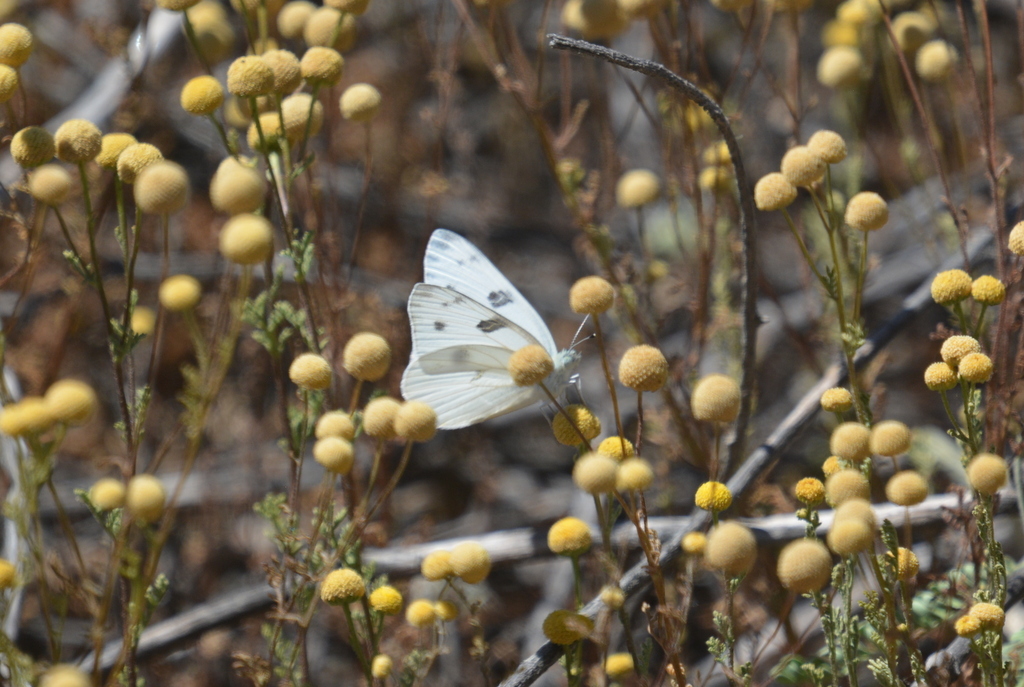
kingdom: Animalia
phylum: Arthropoda
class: Insecta
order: Lepidoptera
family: Pieridae
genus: Pontia
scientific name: Pontia protodice
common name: Checkered white
